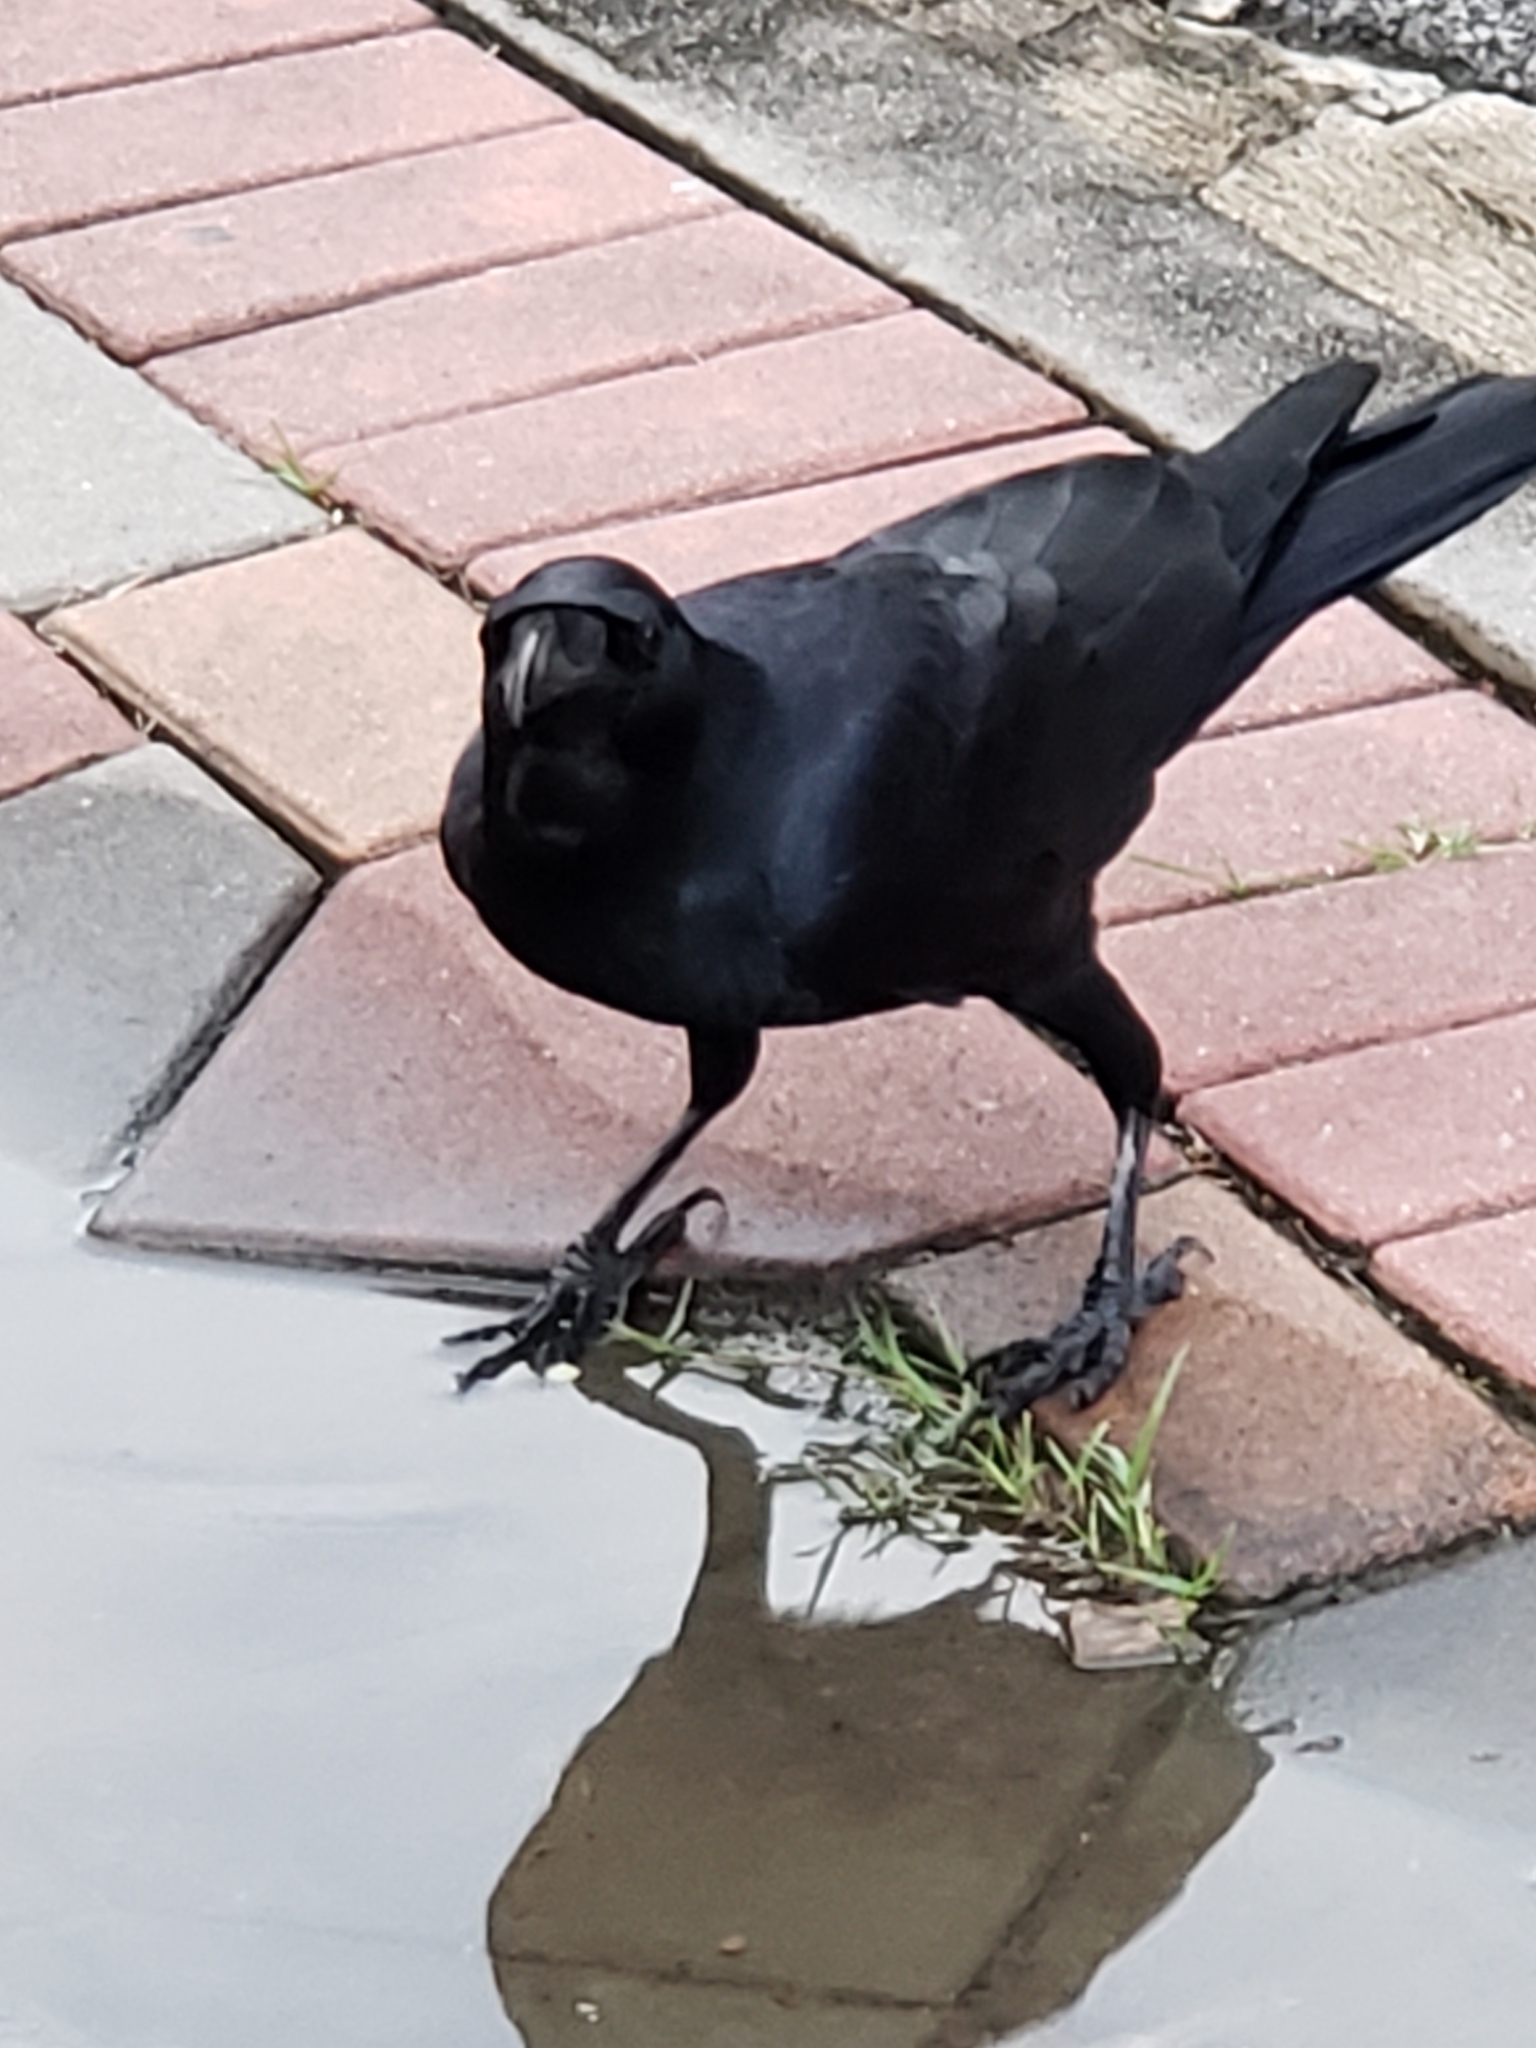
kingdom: Animalia
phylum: Chordata
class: Aves
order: Passeriformes
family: Corvidae
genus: Corvus
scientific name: Corvus macrorhynchos
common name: Large-billed crow
